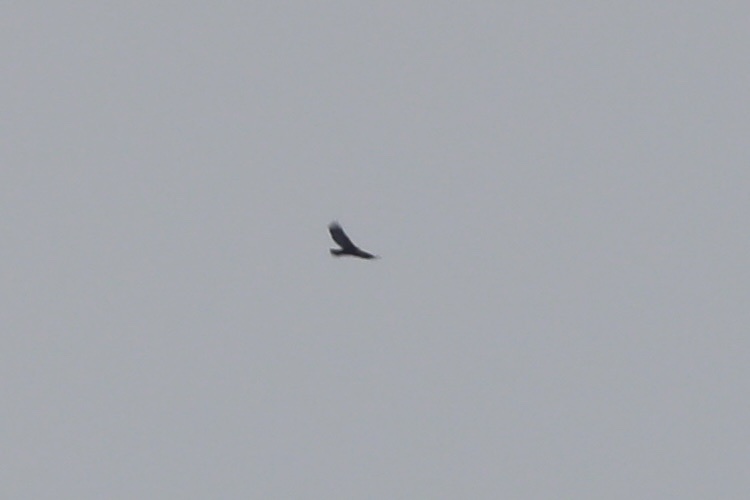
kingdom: Animalia
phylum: Chordata
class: Aves
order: Accipitriformes
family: Accipitridae
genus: Aquila
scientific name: Aquila chrysaetos
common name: Golden eagle
